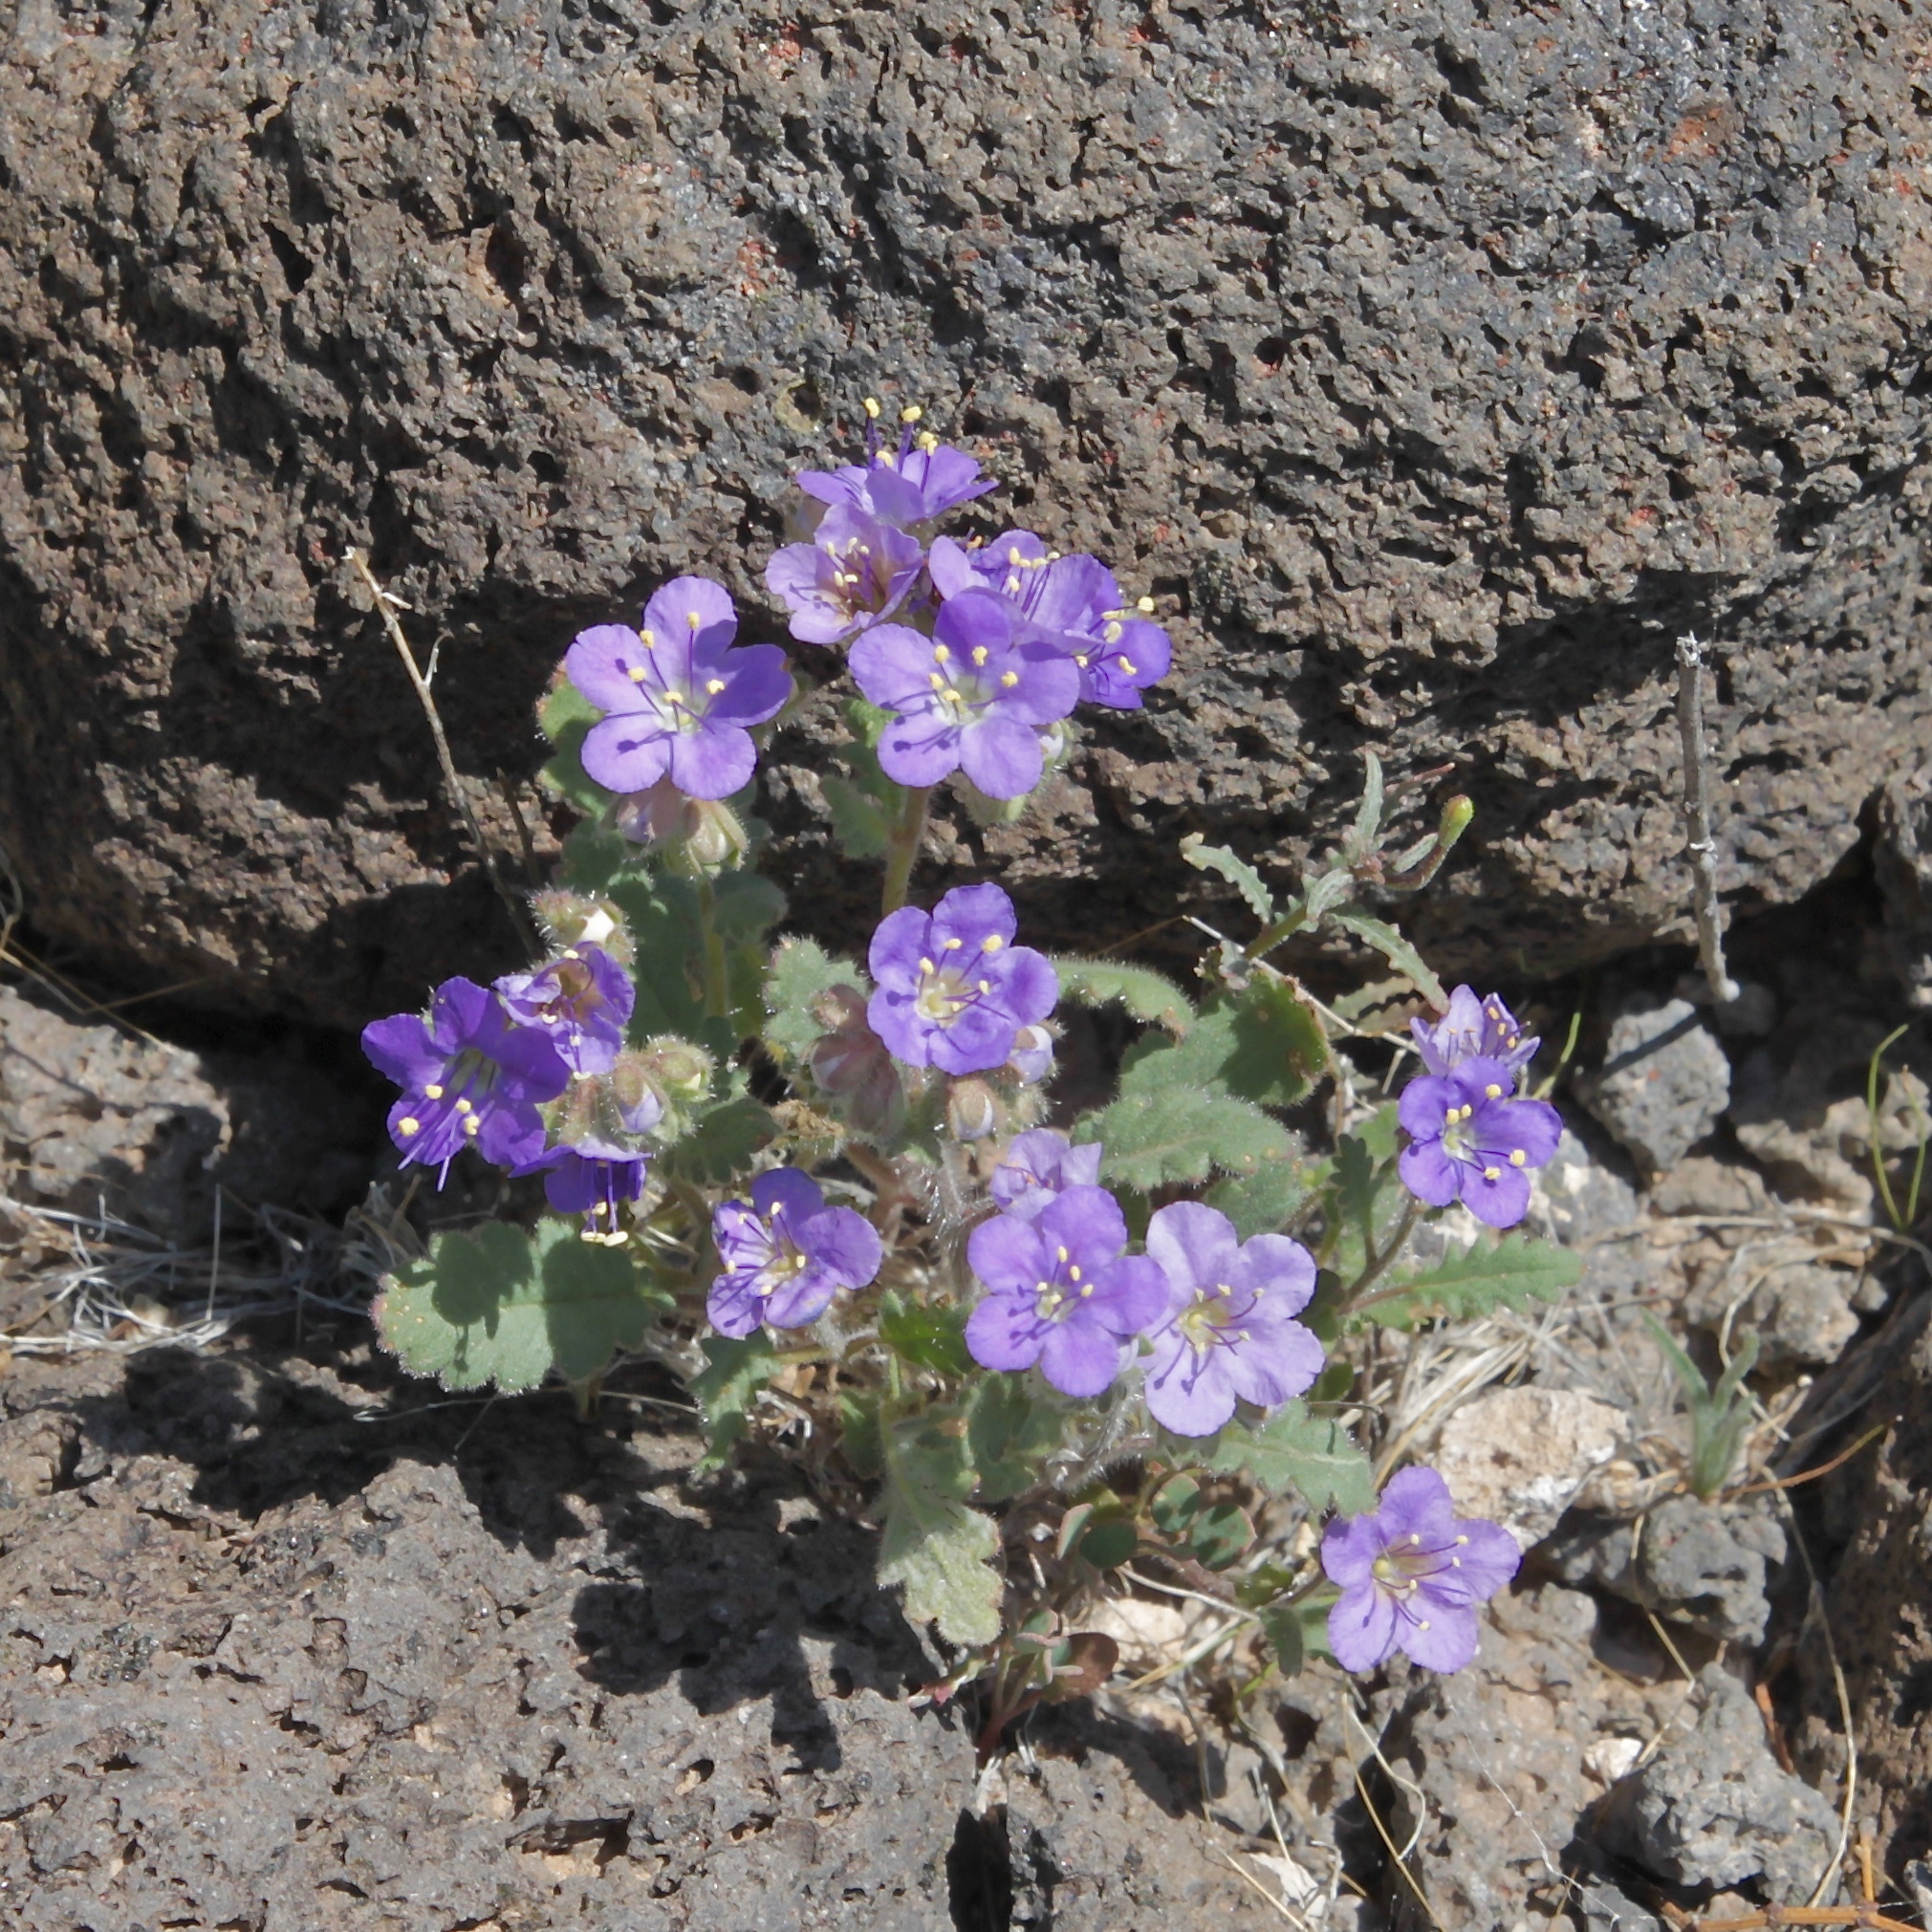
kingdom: Plantae
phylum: Tracheophyta
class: Magnoliopsida
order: Boraginales
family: Hydrophyllaceae
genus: Phacelia
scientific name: Phacelia crenulata
